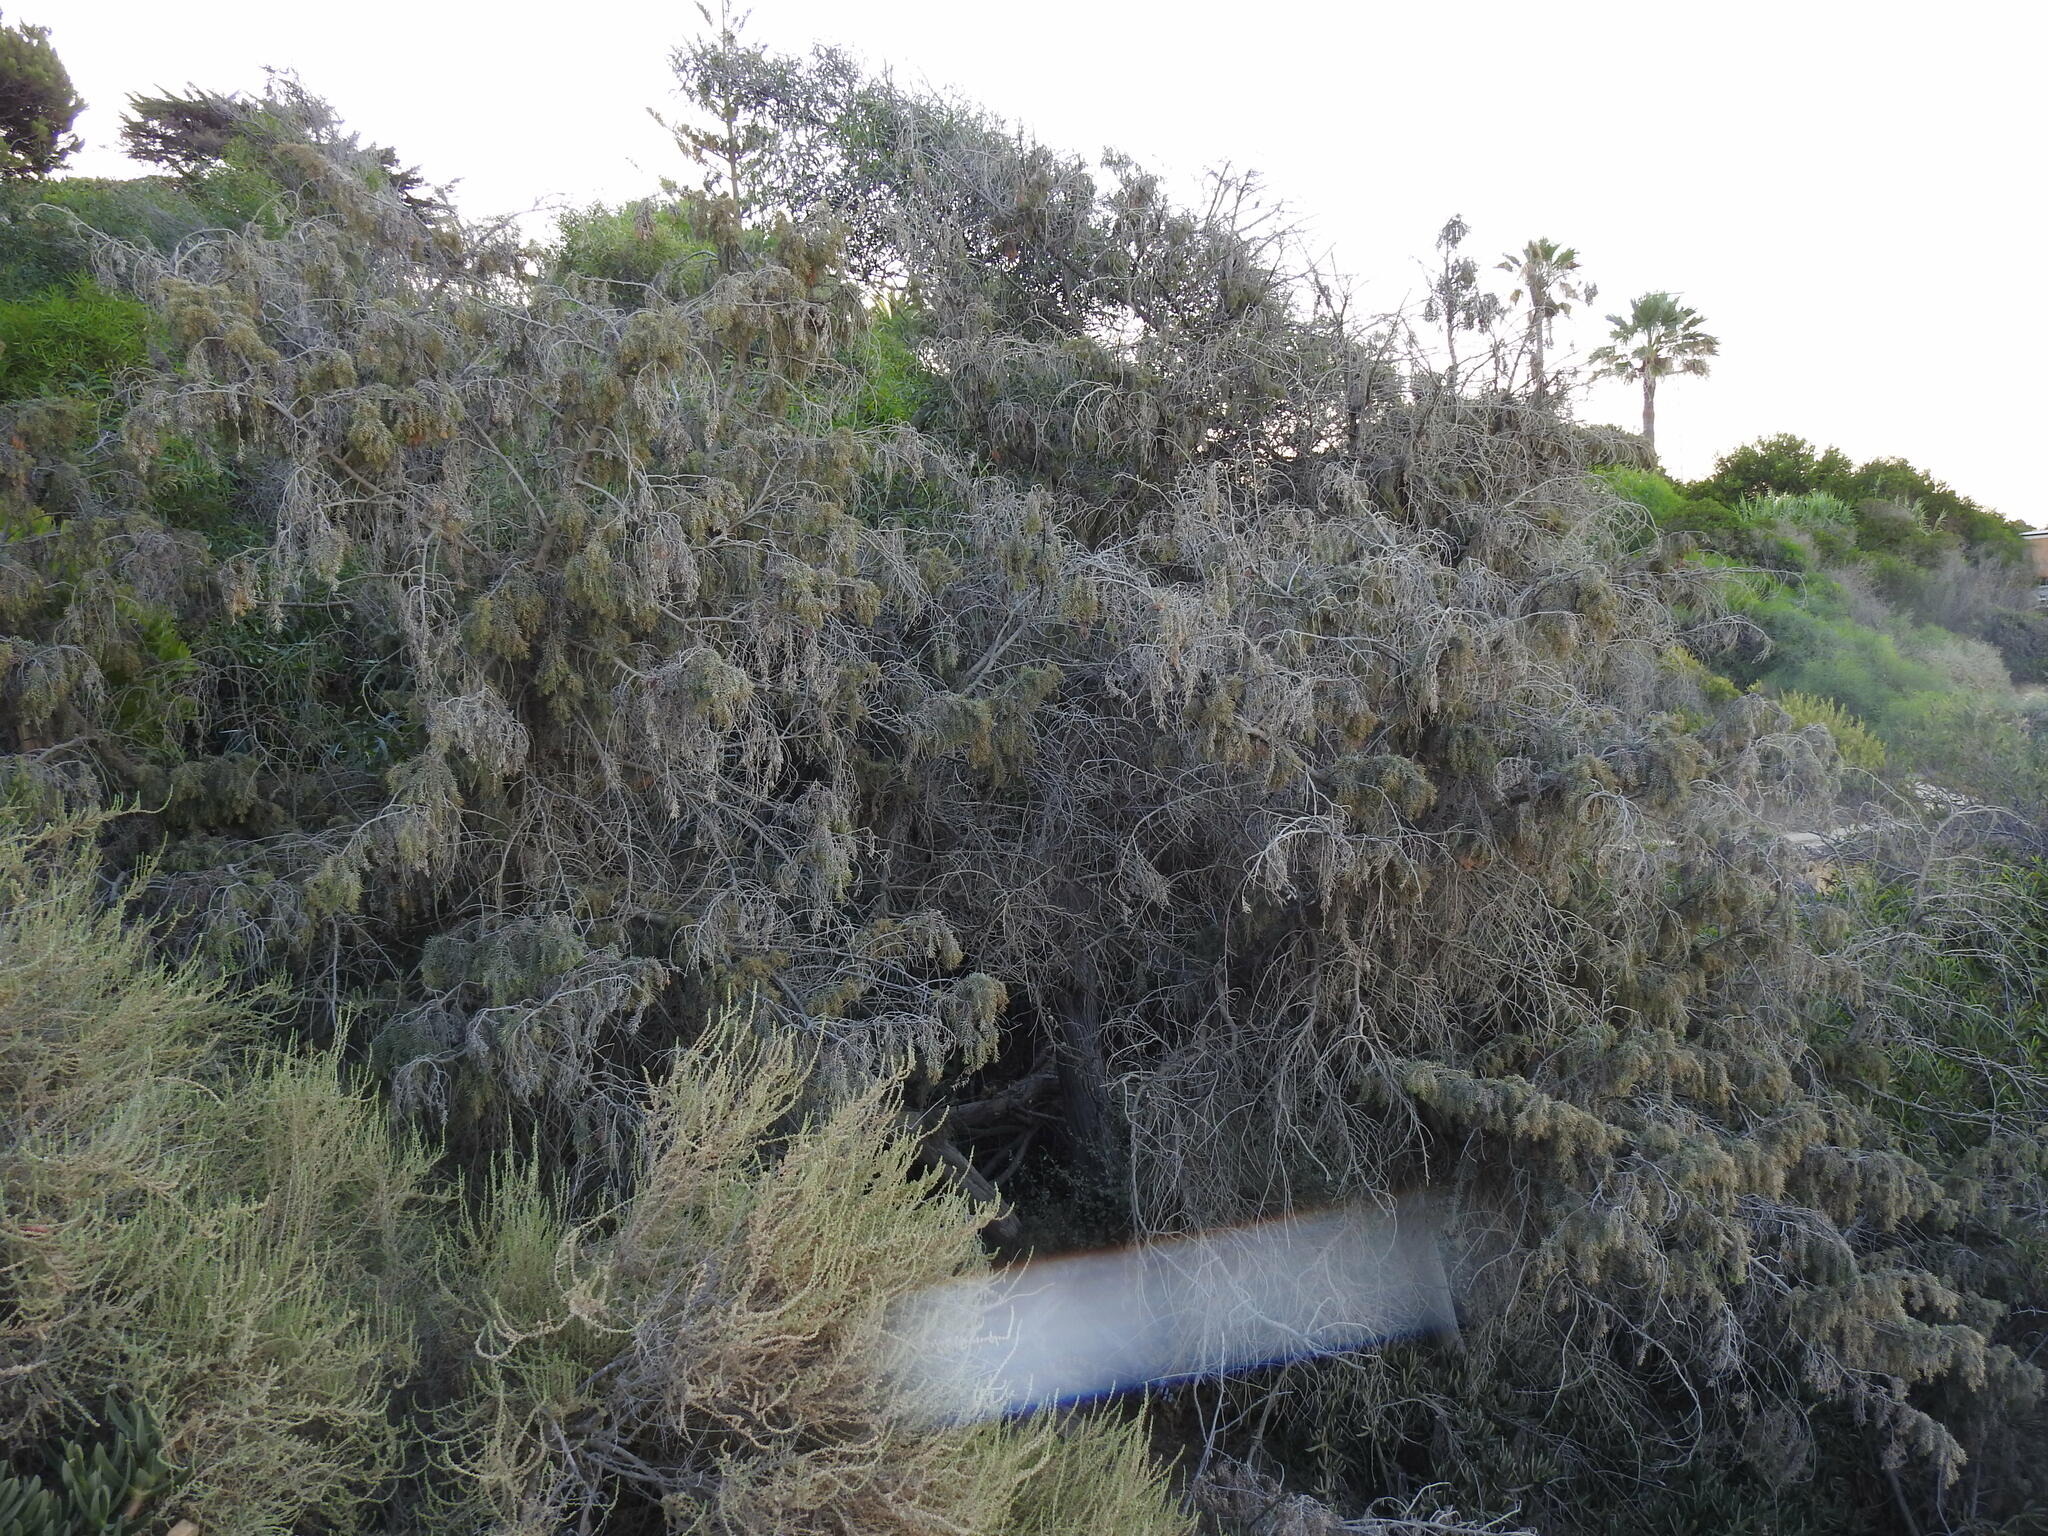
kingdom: Plantae
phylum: Tracheophyta
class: Pinopsida
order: Pinales
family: Cupressaceae
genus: Juniperus
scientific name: Juniperus oxycedrus
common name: Prickly juniper
